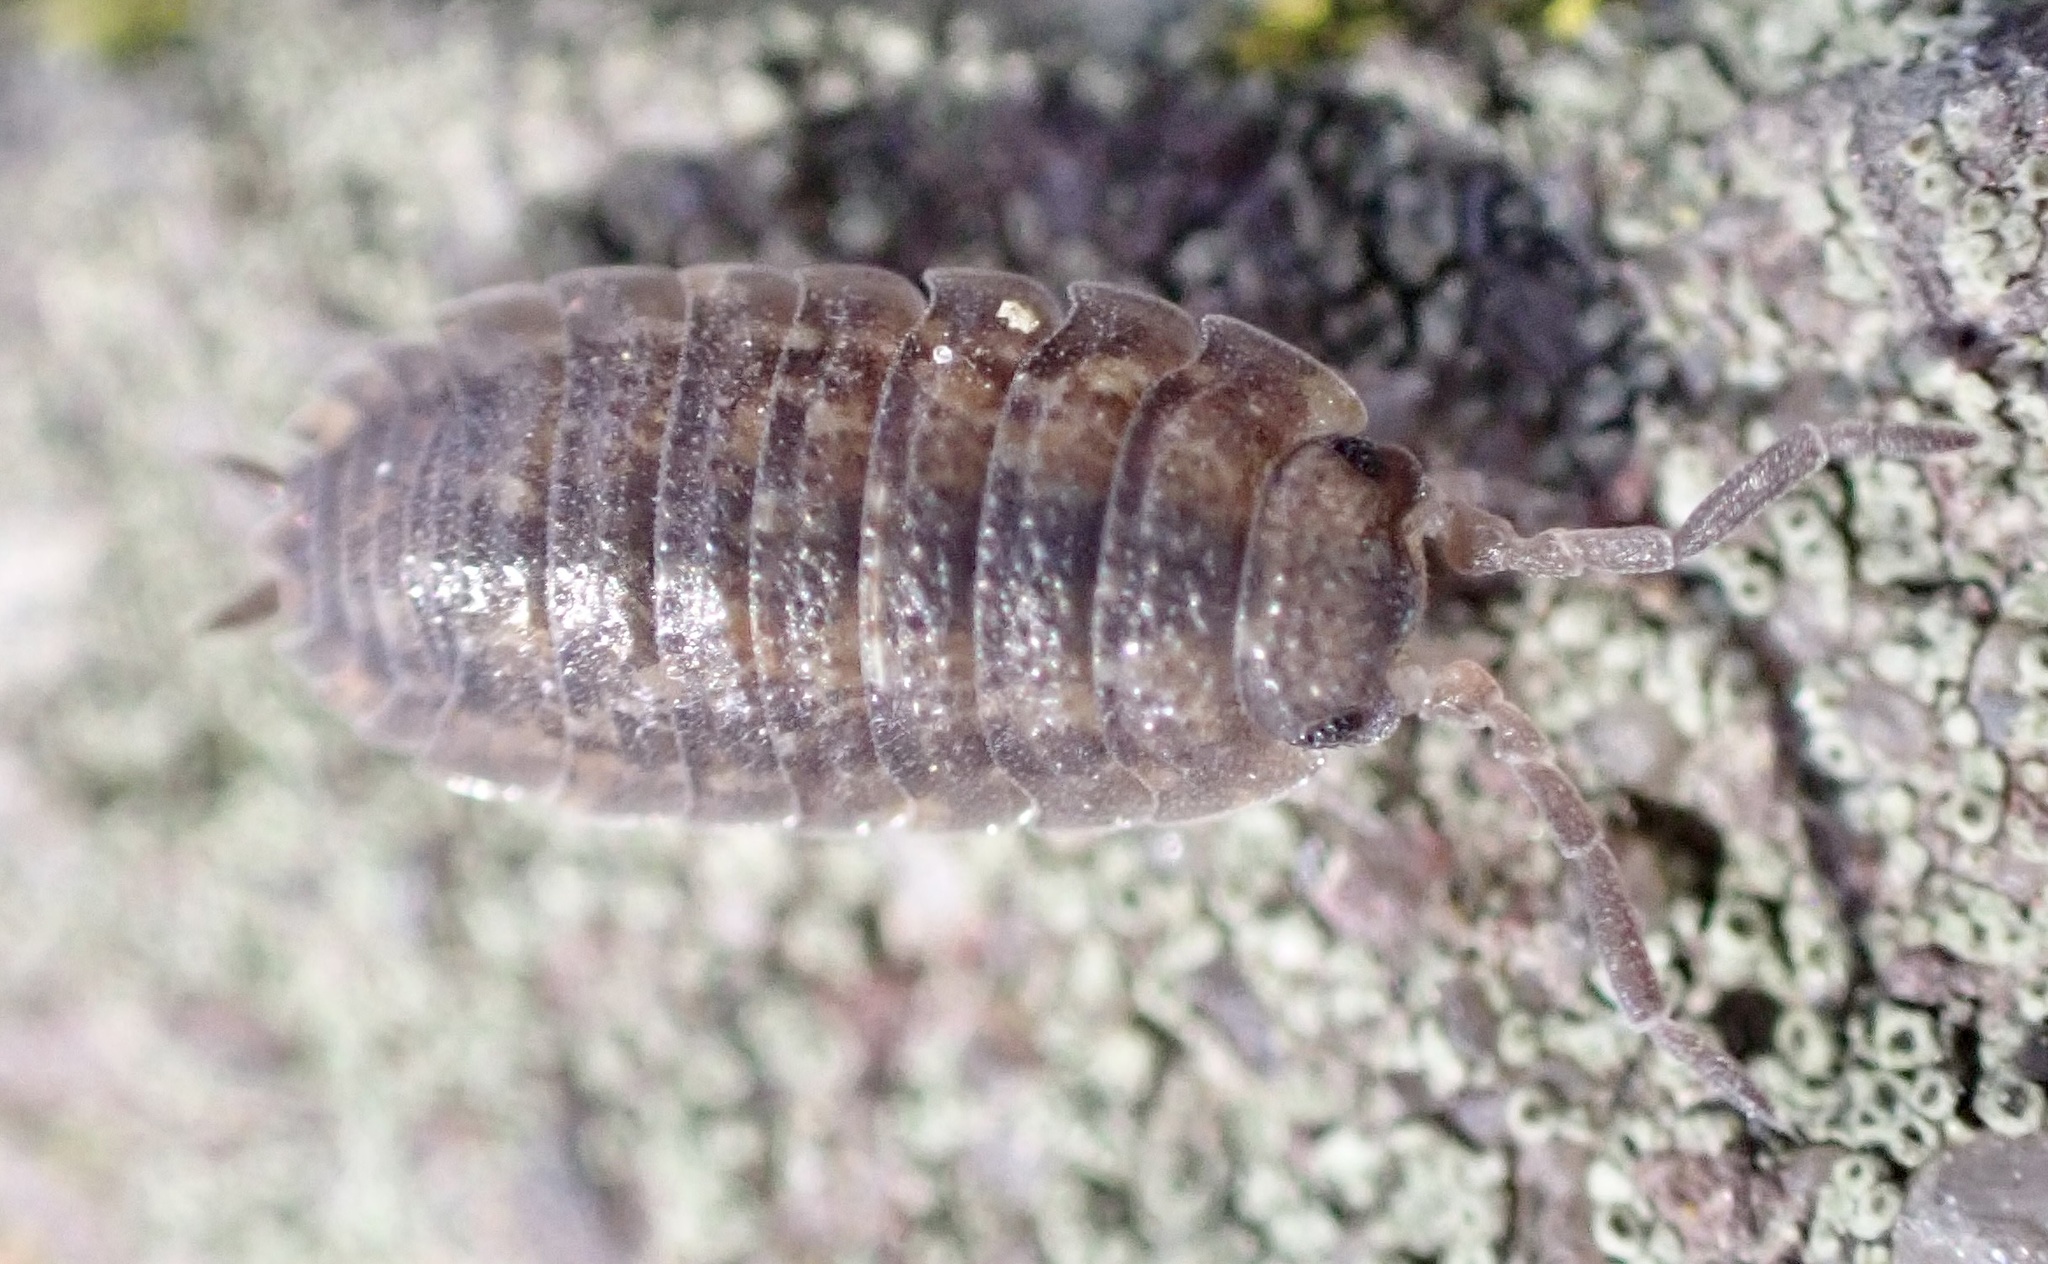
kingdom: Animalia
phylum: Arthropoda
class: Malacostraca
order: Isopoda
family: Porcellionidae
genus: Porcellio
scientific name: Porcellio scaber
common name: Common rough woodlouse
